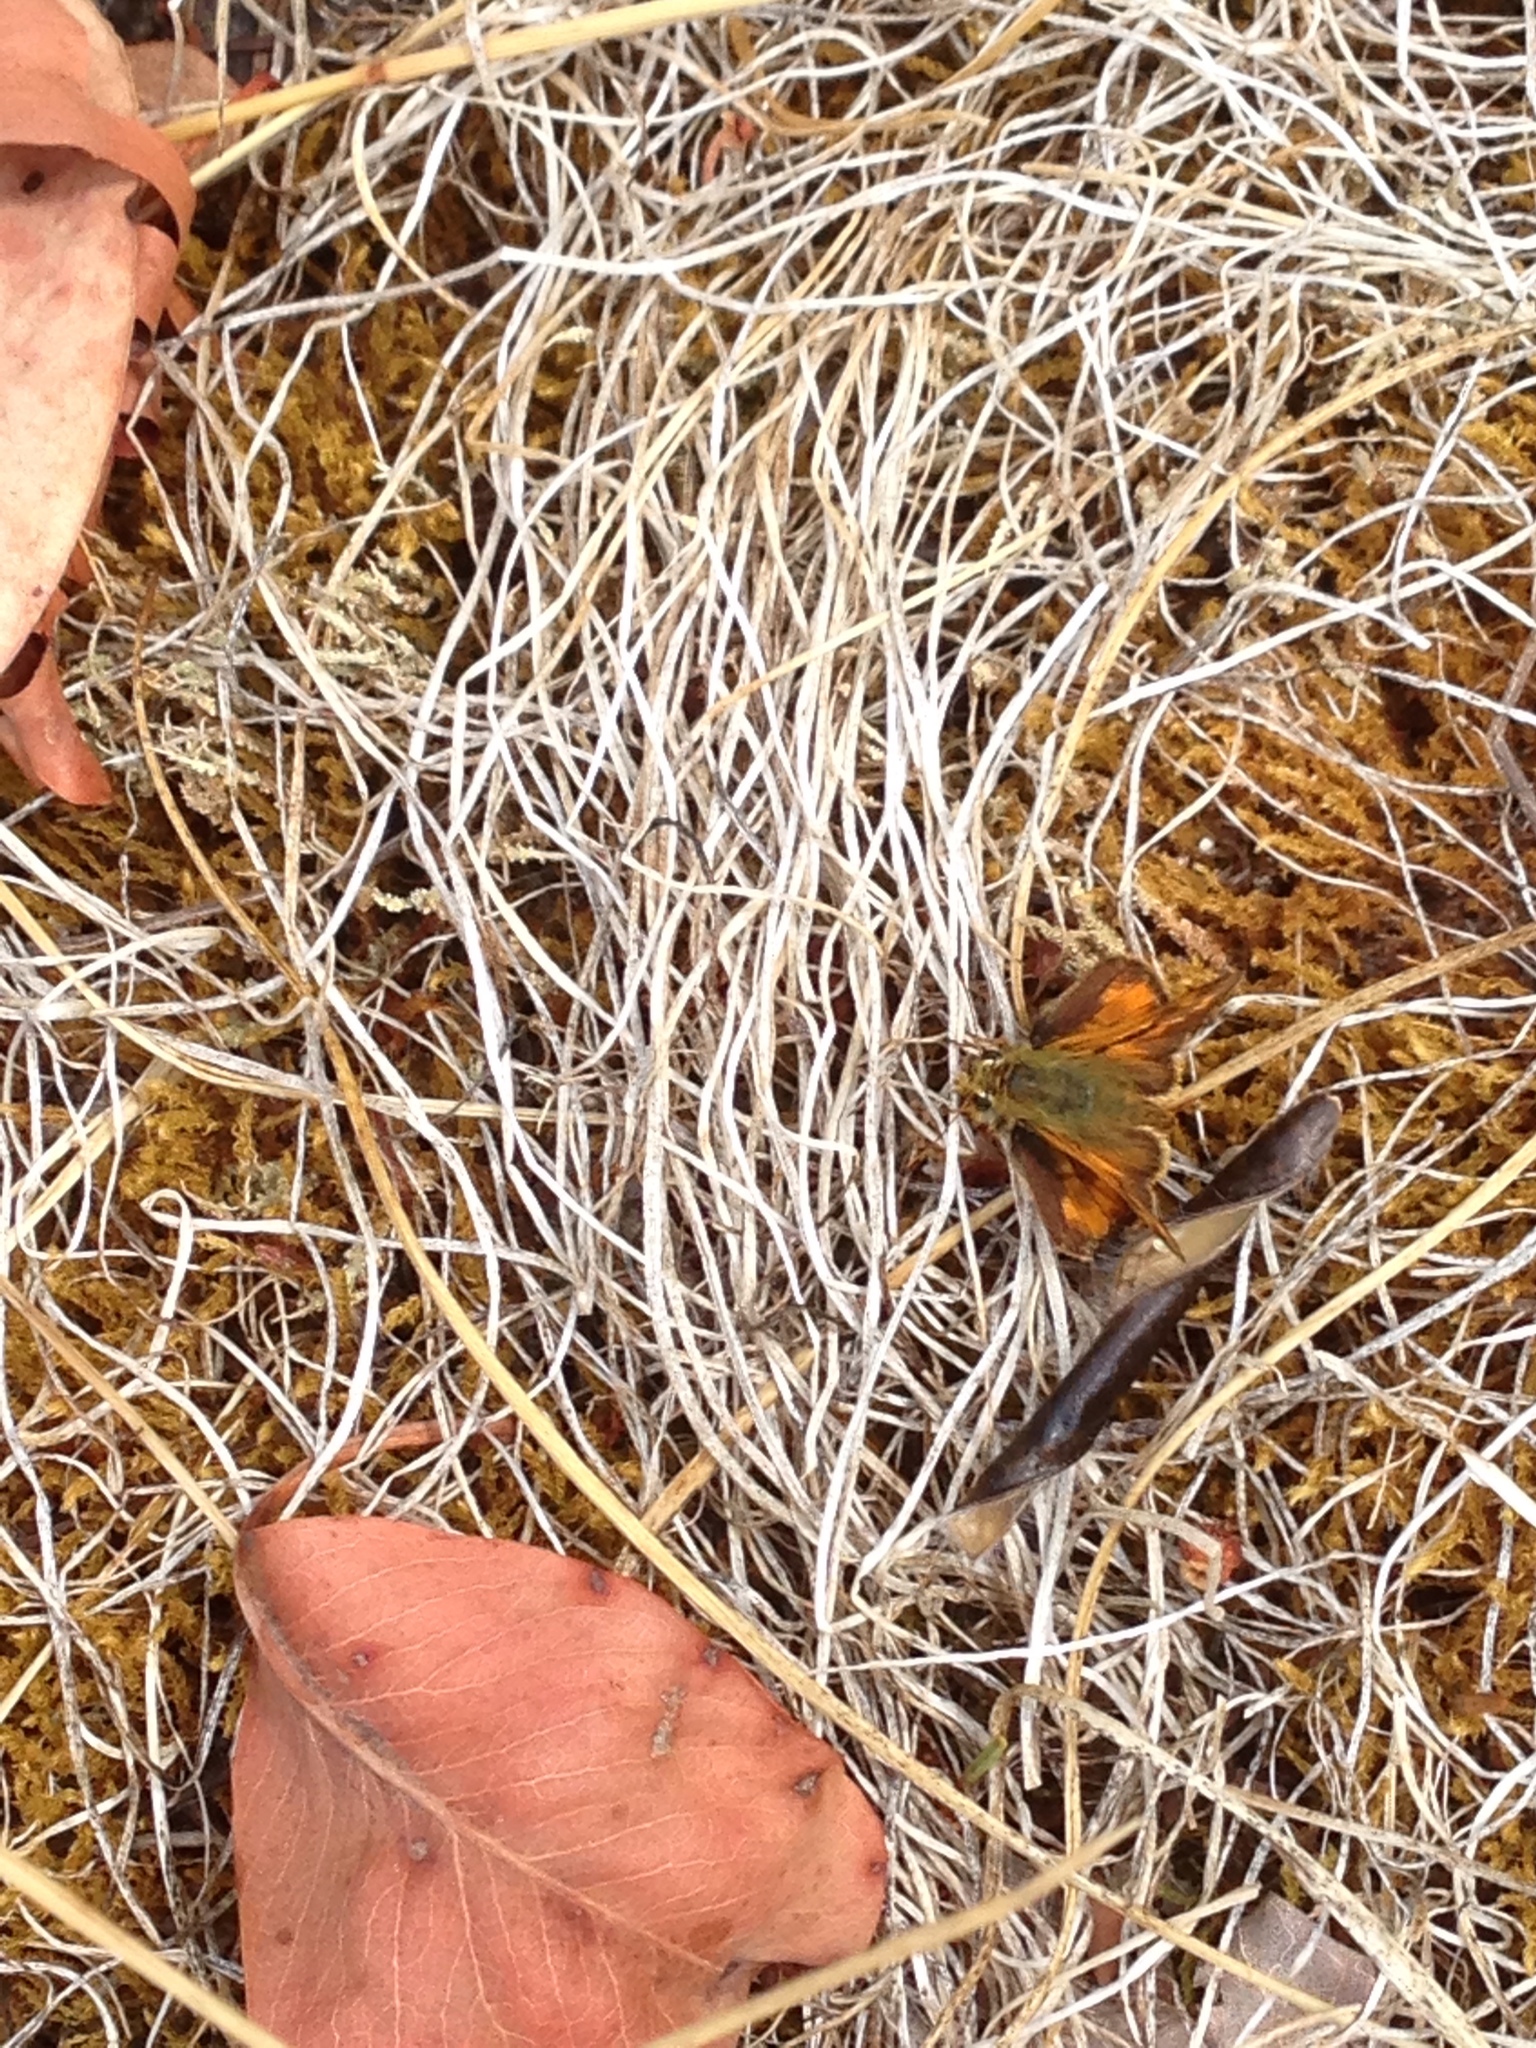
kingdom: Animalia
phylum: Arthropoda
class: Insecta
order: Lepidoptera
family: Hesperiidae
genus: Ochlodes
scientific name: Ochlodes sylvanoides
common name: Woodland skipper
